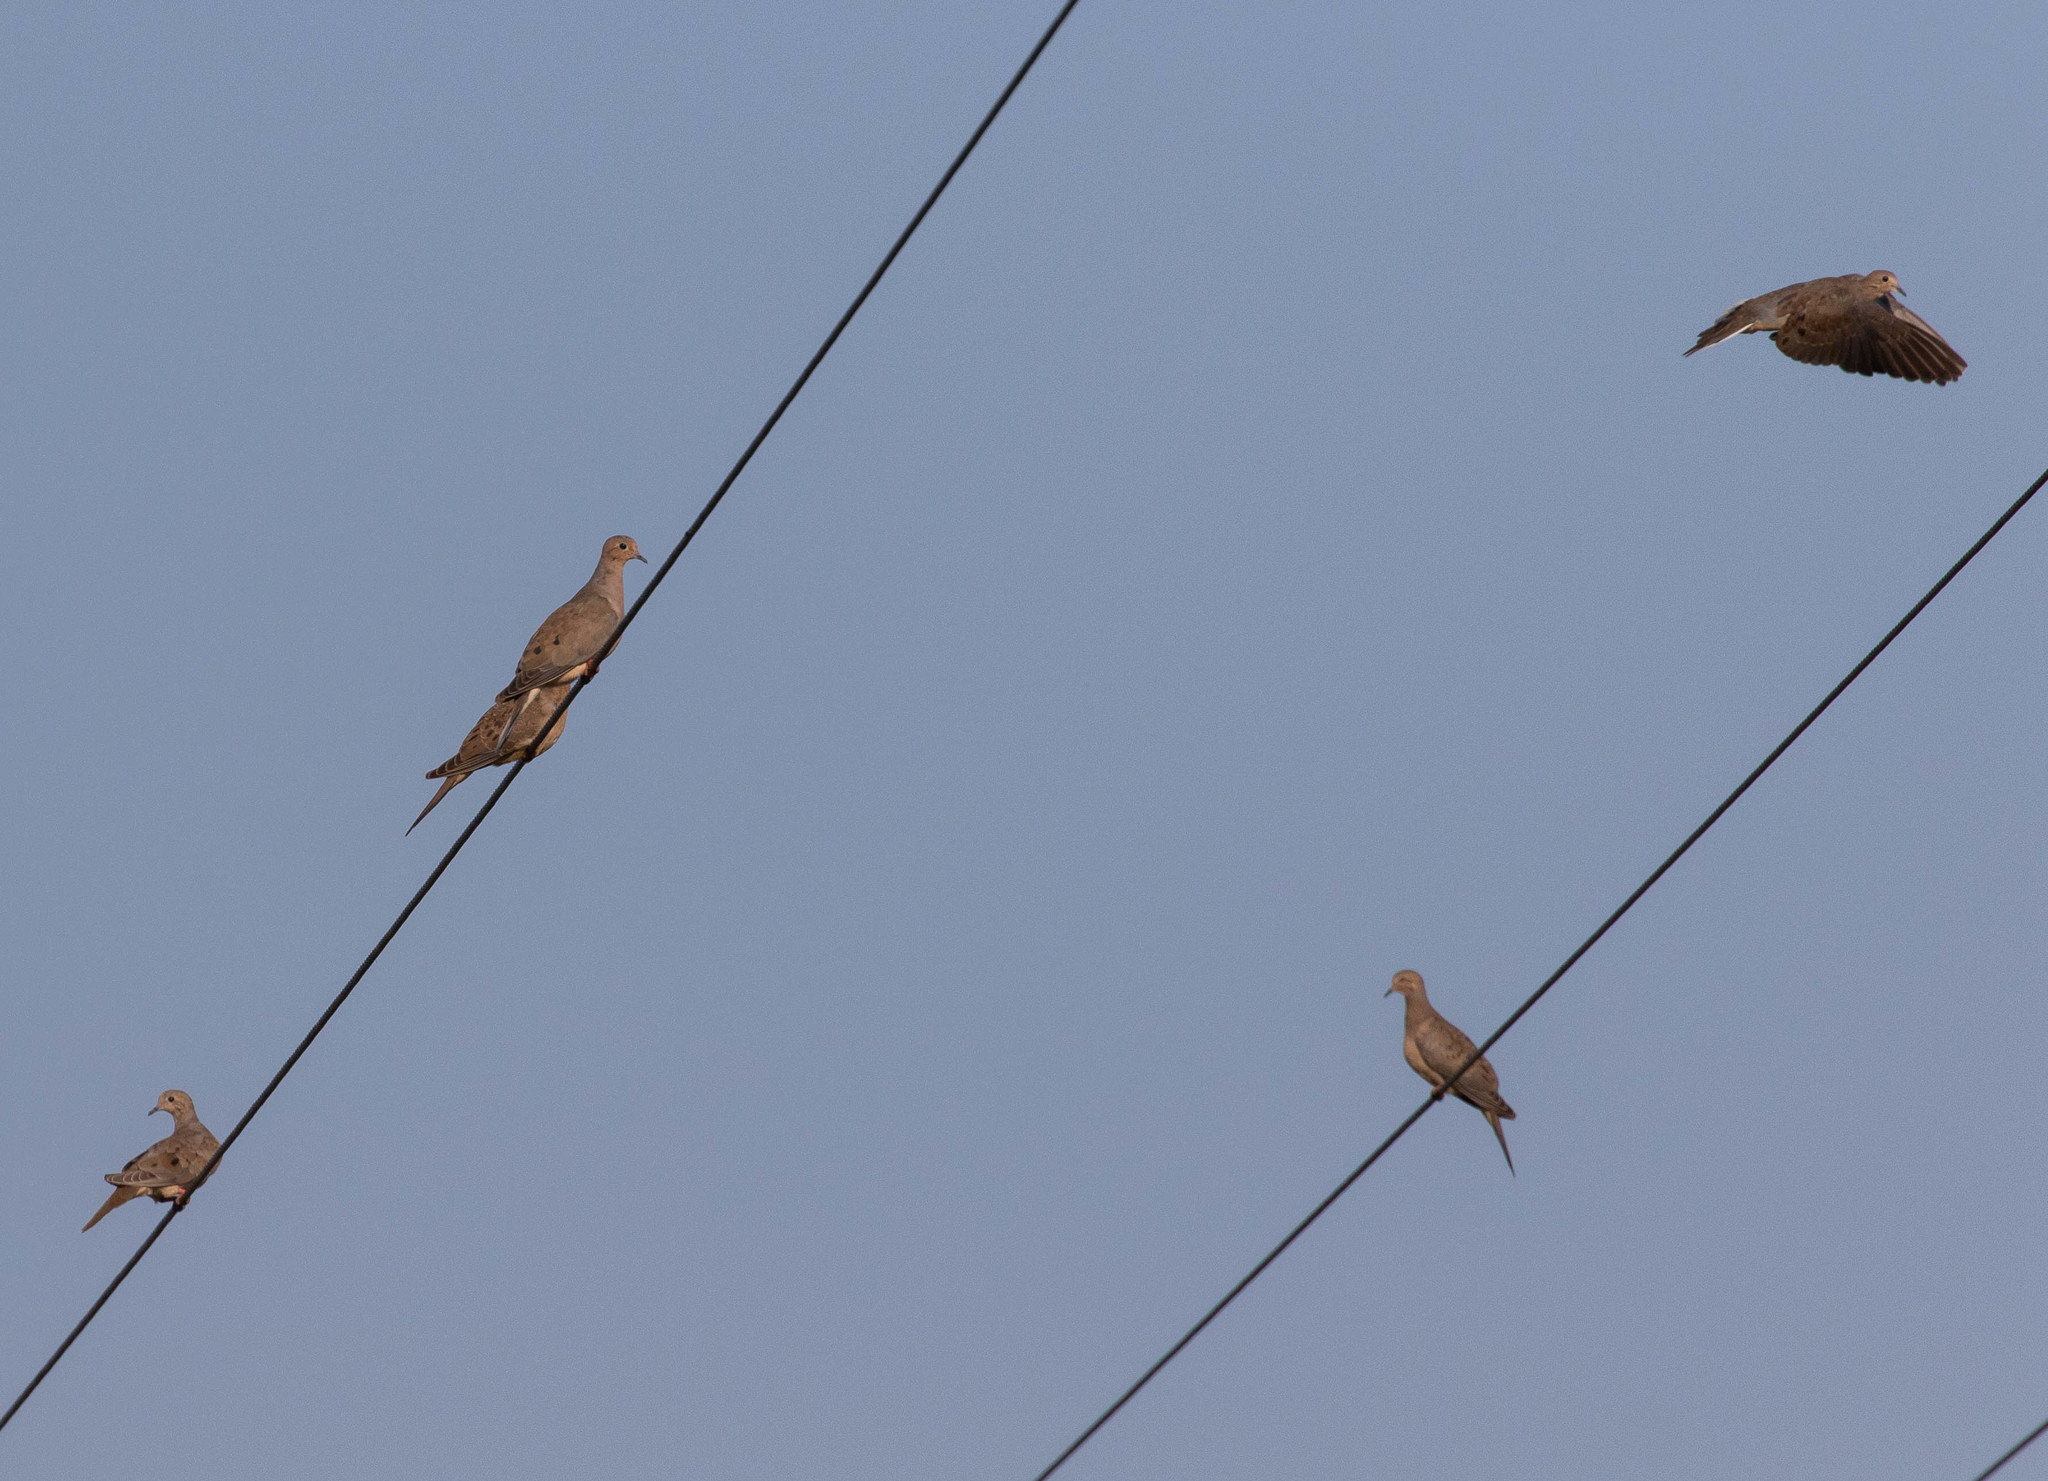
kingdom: Animalia
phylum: Chordata
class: Aves
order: Columbiformes
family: Columbidae
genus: Zenaida
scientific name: Zenaida macroura
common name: Mourning dove
